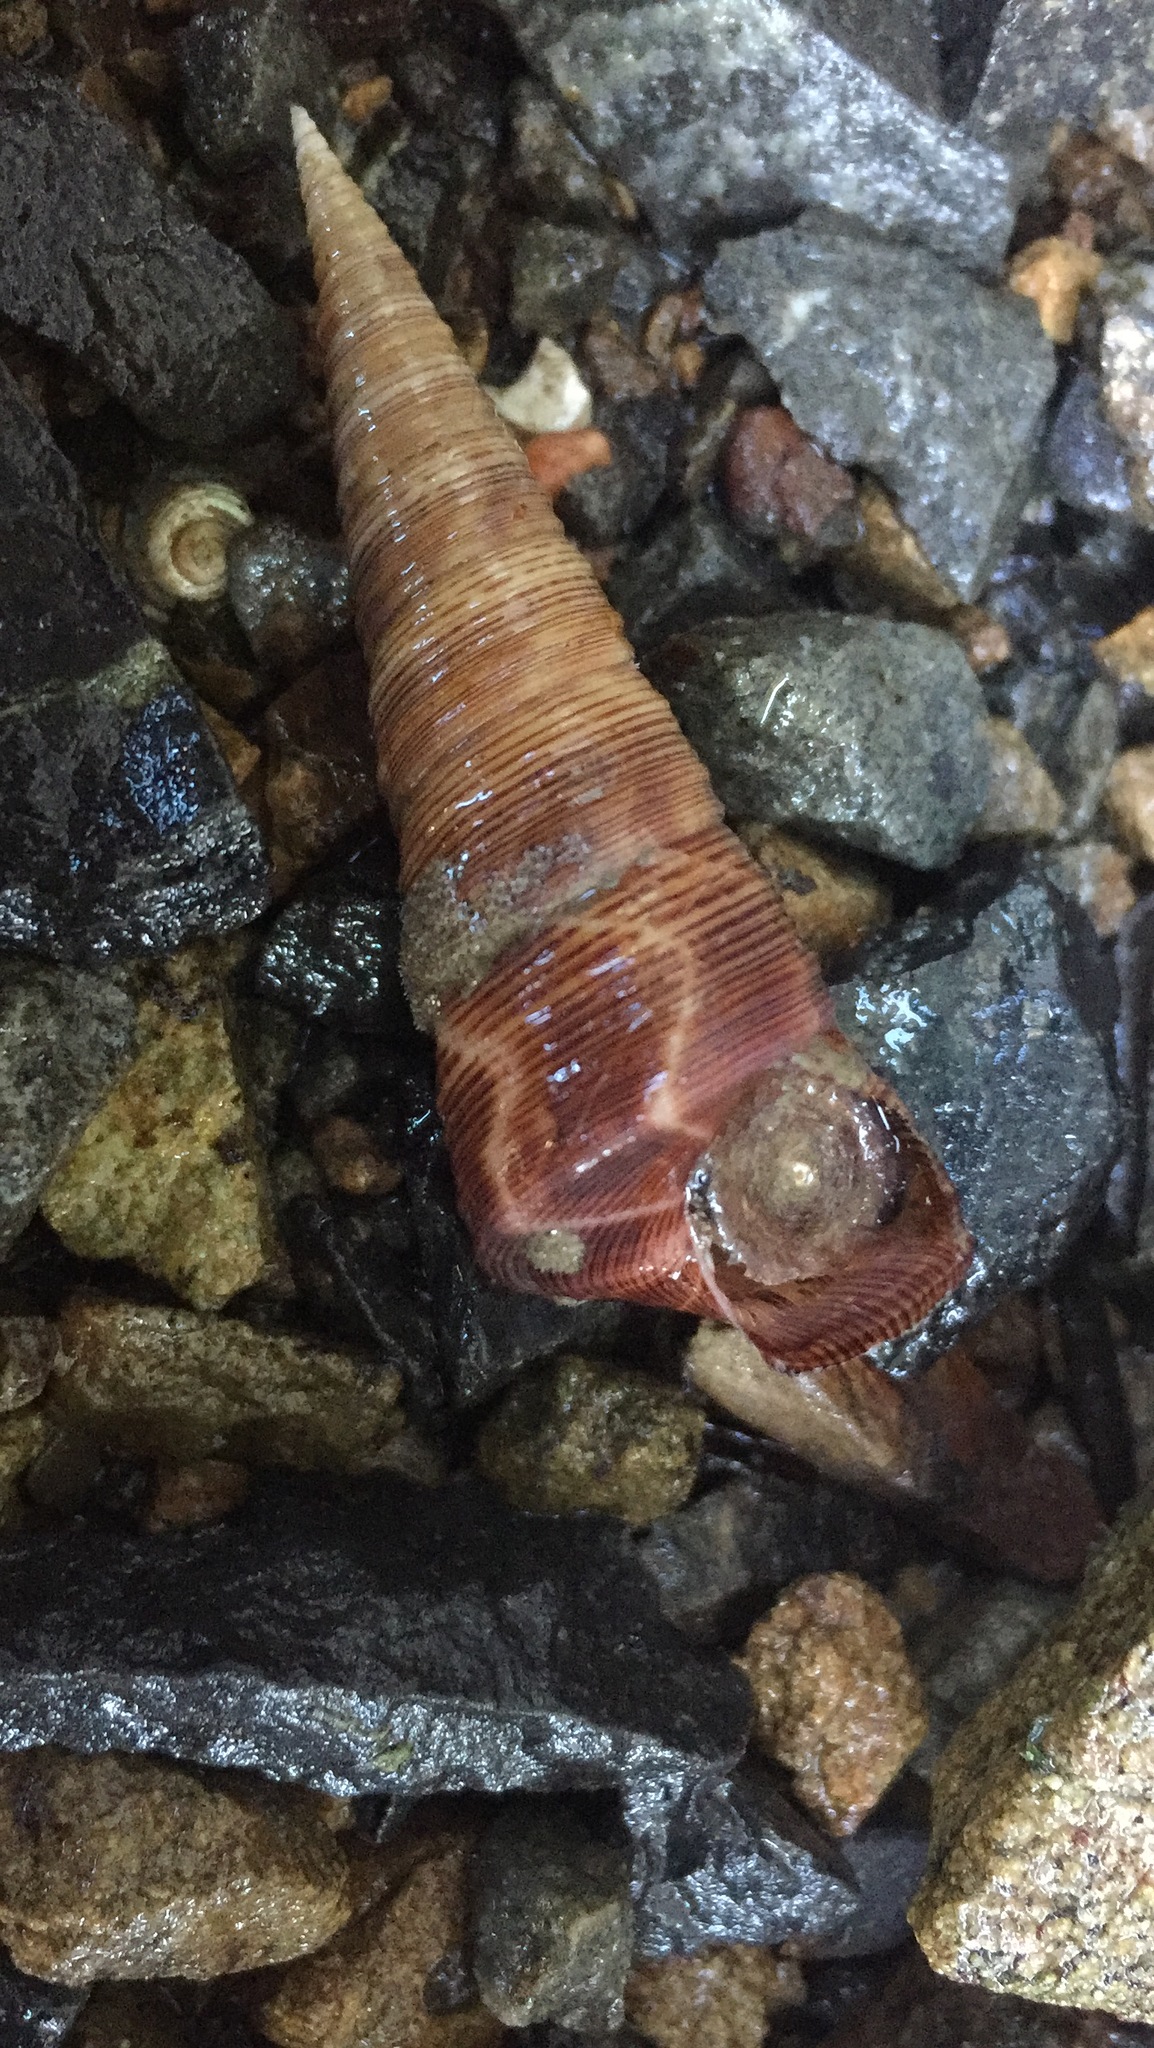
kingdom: Animalia
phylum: Mollusca
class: Gastropoda
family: Turritellidae
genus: Maoricolpus
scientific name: Maoricolpus roseus
